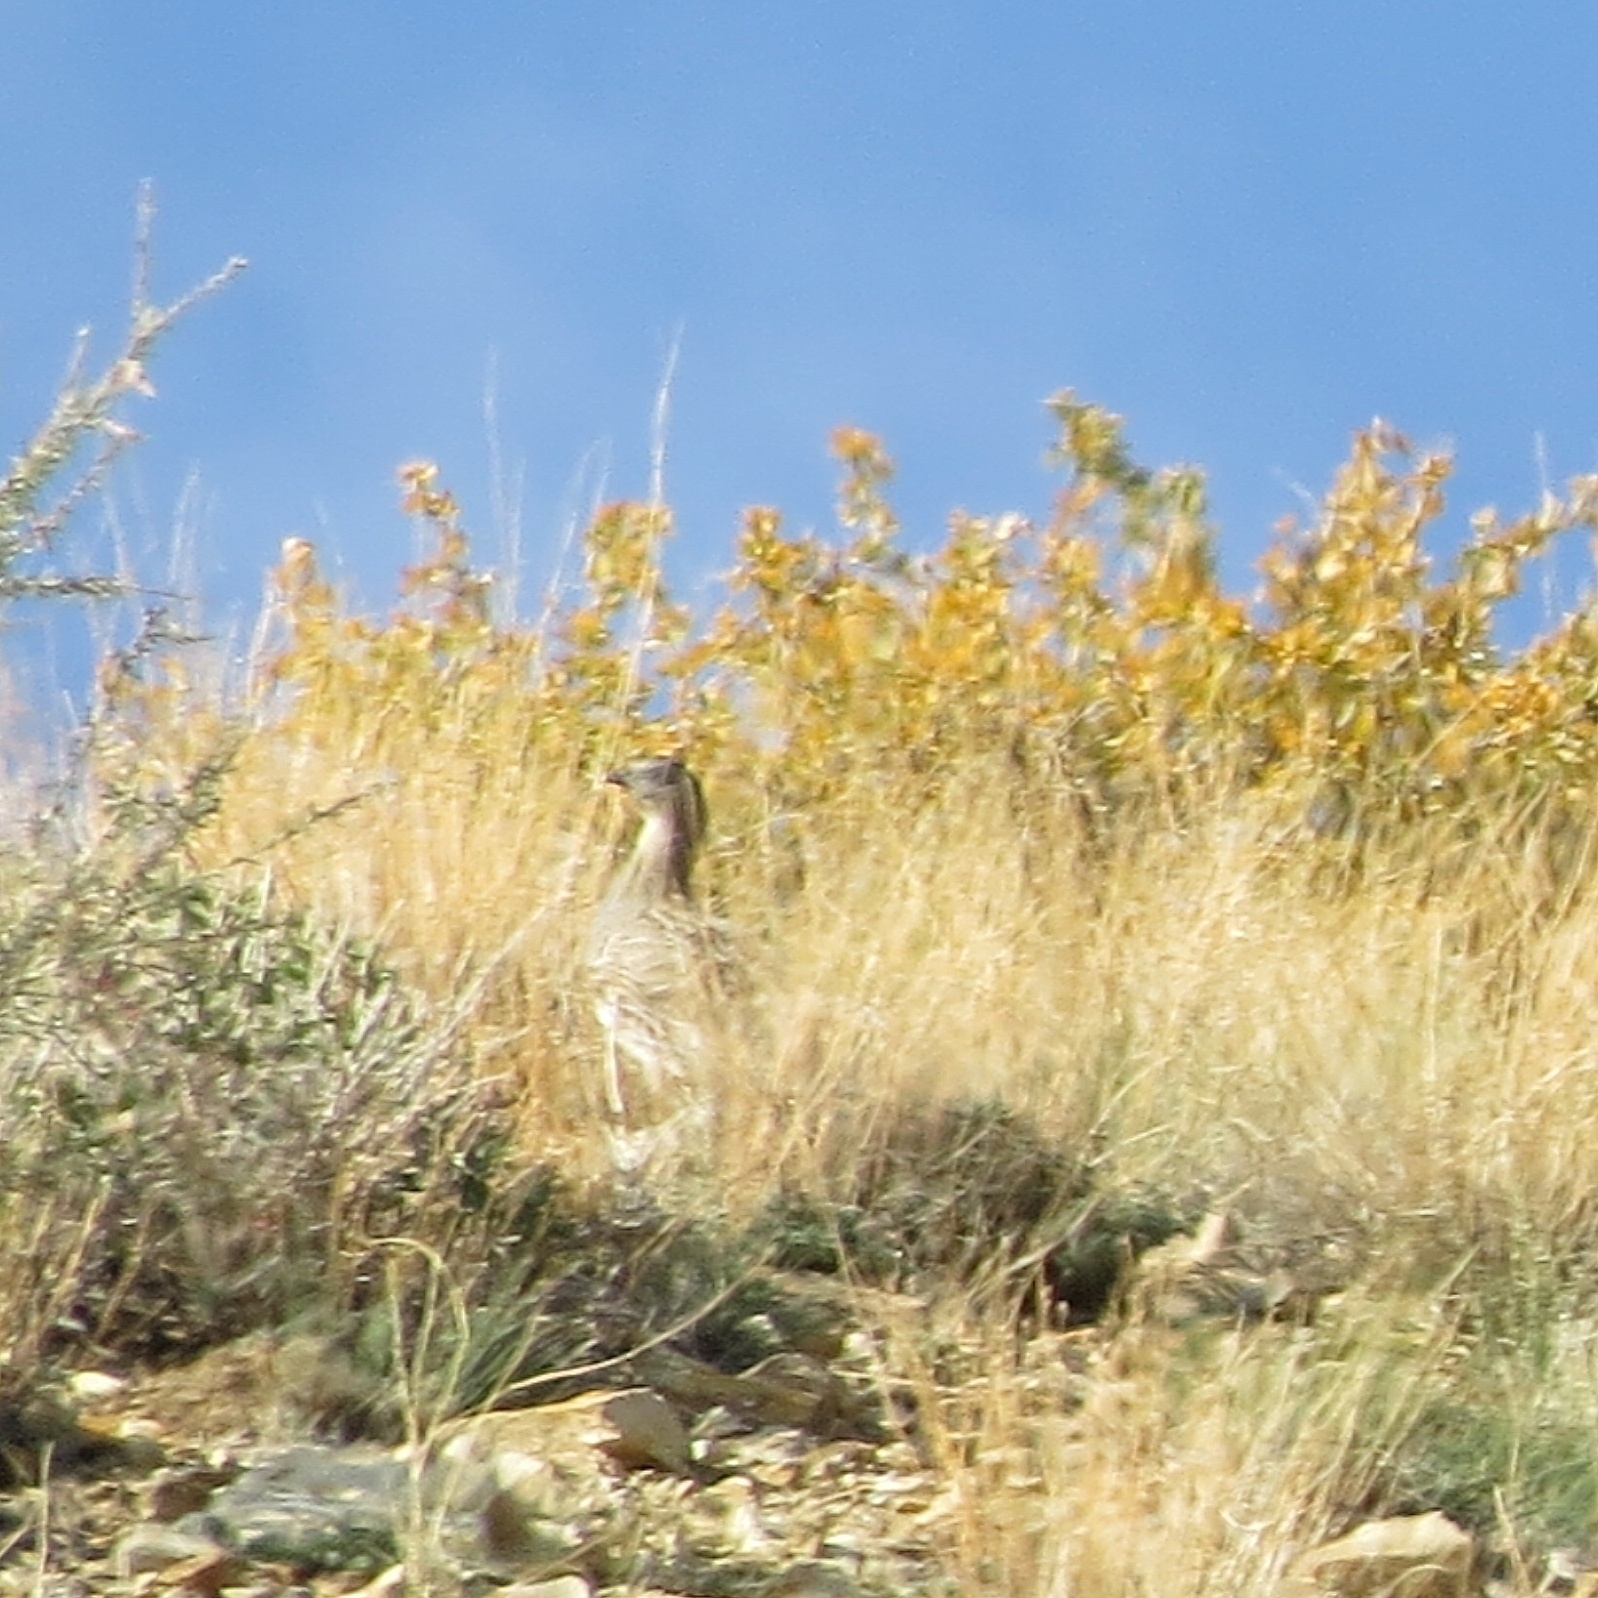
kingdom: Animalia
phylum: Chordata
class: Aves
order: Galliformes
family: Phasianidae
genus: Perdix
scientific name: Perdix dauurica
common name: Daurian partridge
